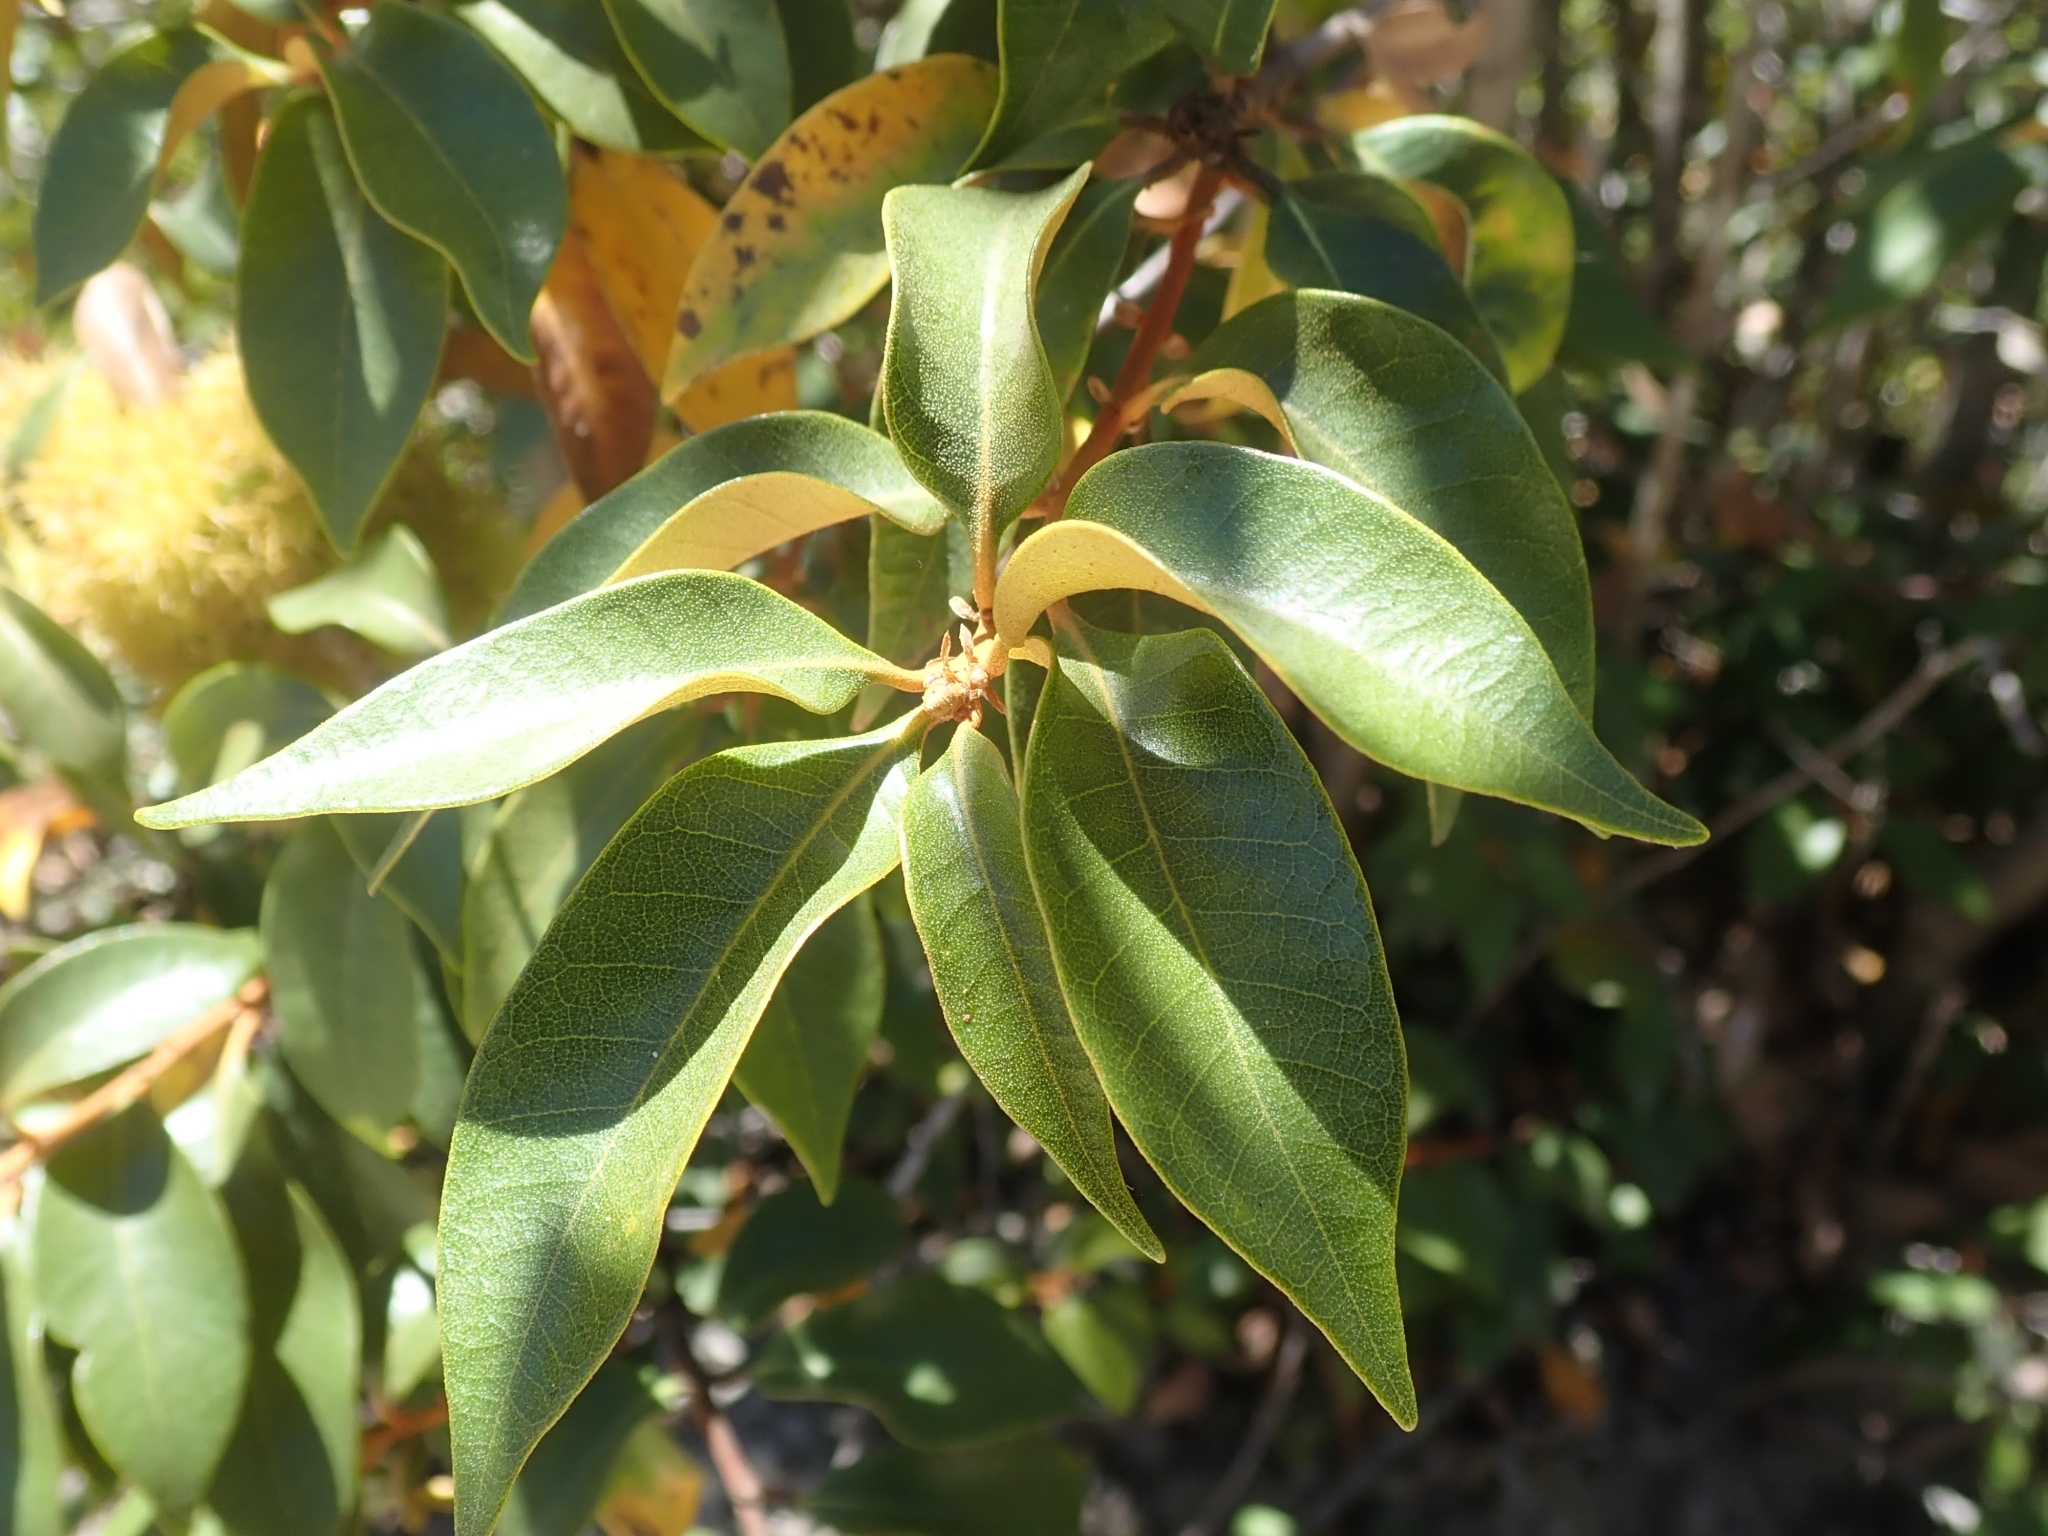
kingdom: Plantae
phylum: Tracheophyta
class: Magnoliopsida
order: Fagales
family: Fagaceae
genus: Chrysolepis
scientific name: Chrysolepis chrysophylla
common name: Giant chinquapin
